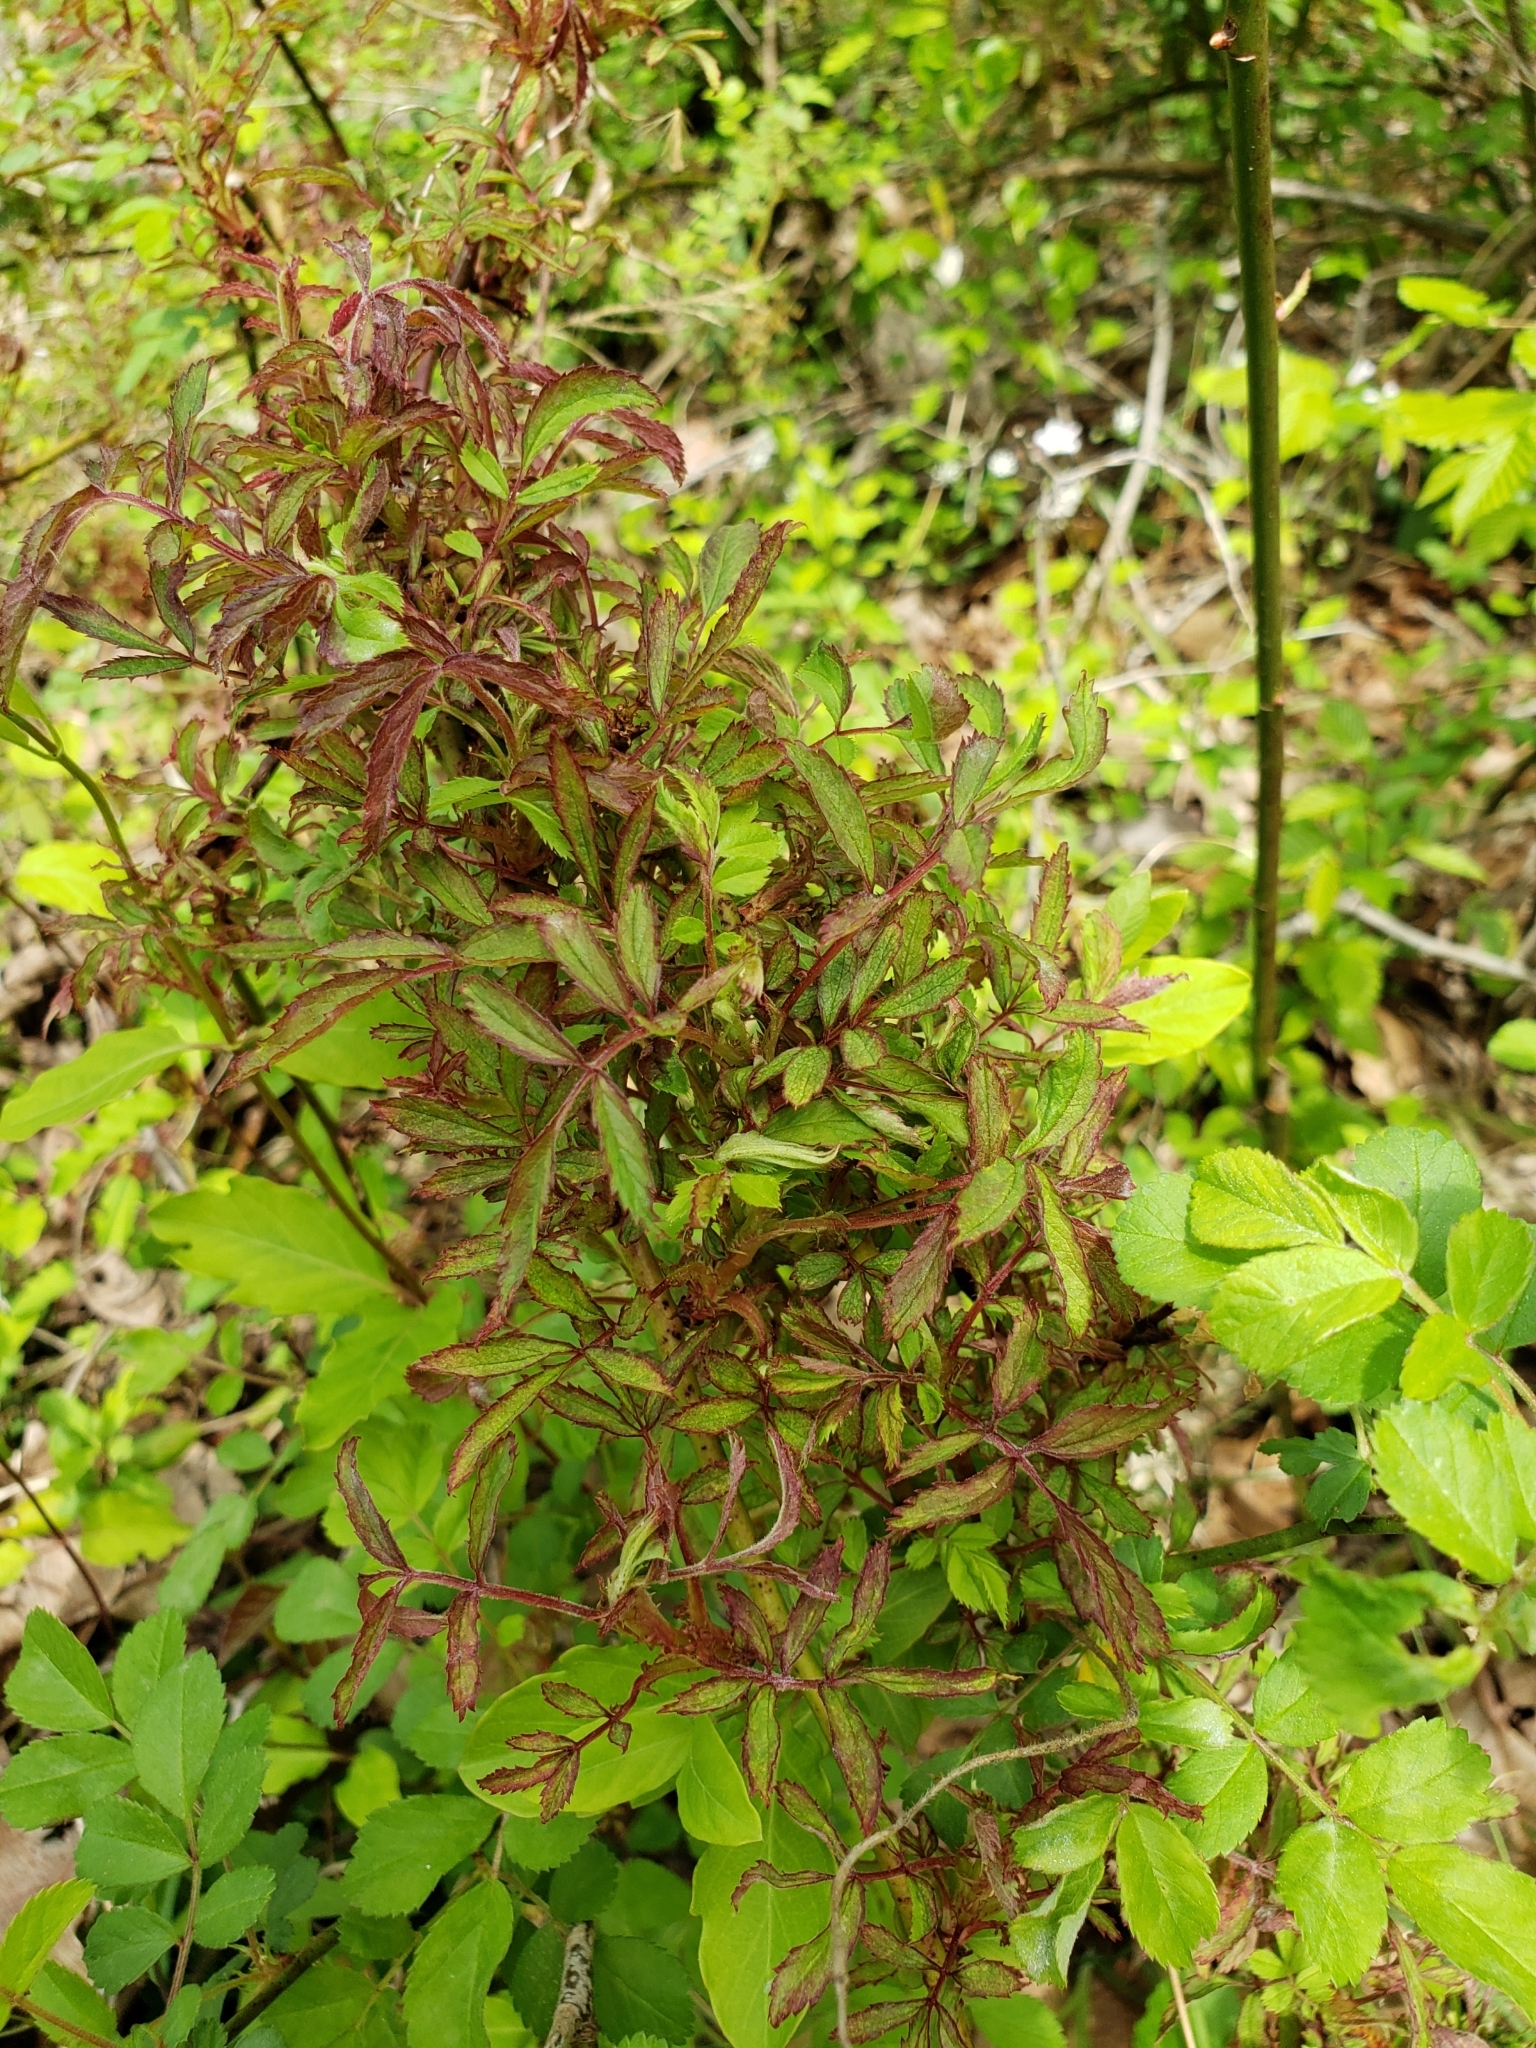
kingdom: Viruses
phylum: Negarnaviricota
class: Ellioviricetes
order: Bunyavirales
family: Fimoviridae
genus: Emaravirus
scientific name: Emaravirus rosae
